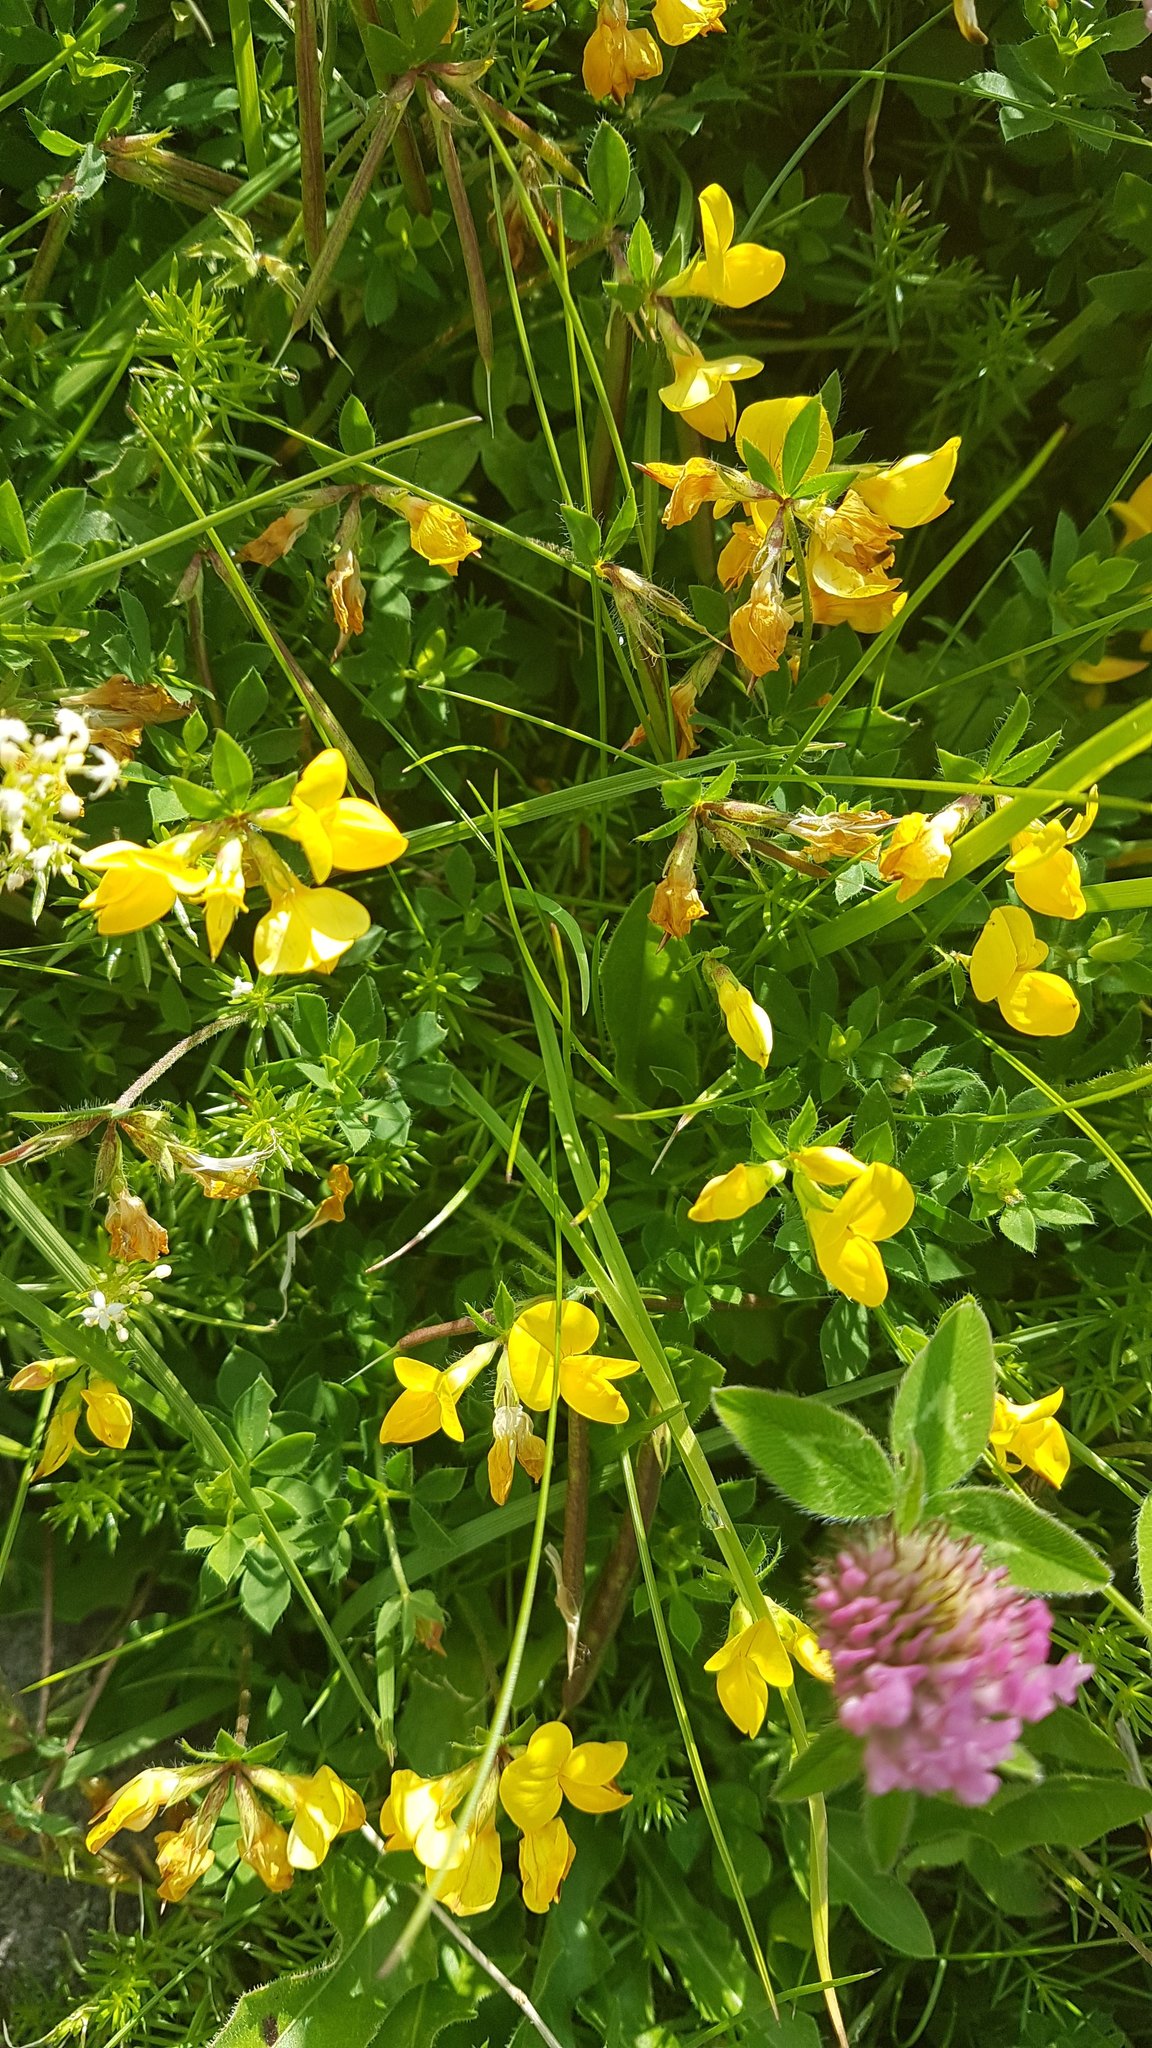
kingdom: Plantae
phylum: Tracheophyta
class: Magnoliopsida
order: Fabales
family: Fabaceae
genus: Lotus
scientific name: Lotus corniculatus
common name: Common bird's-foot-trefoil
